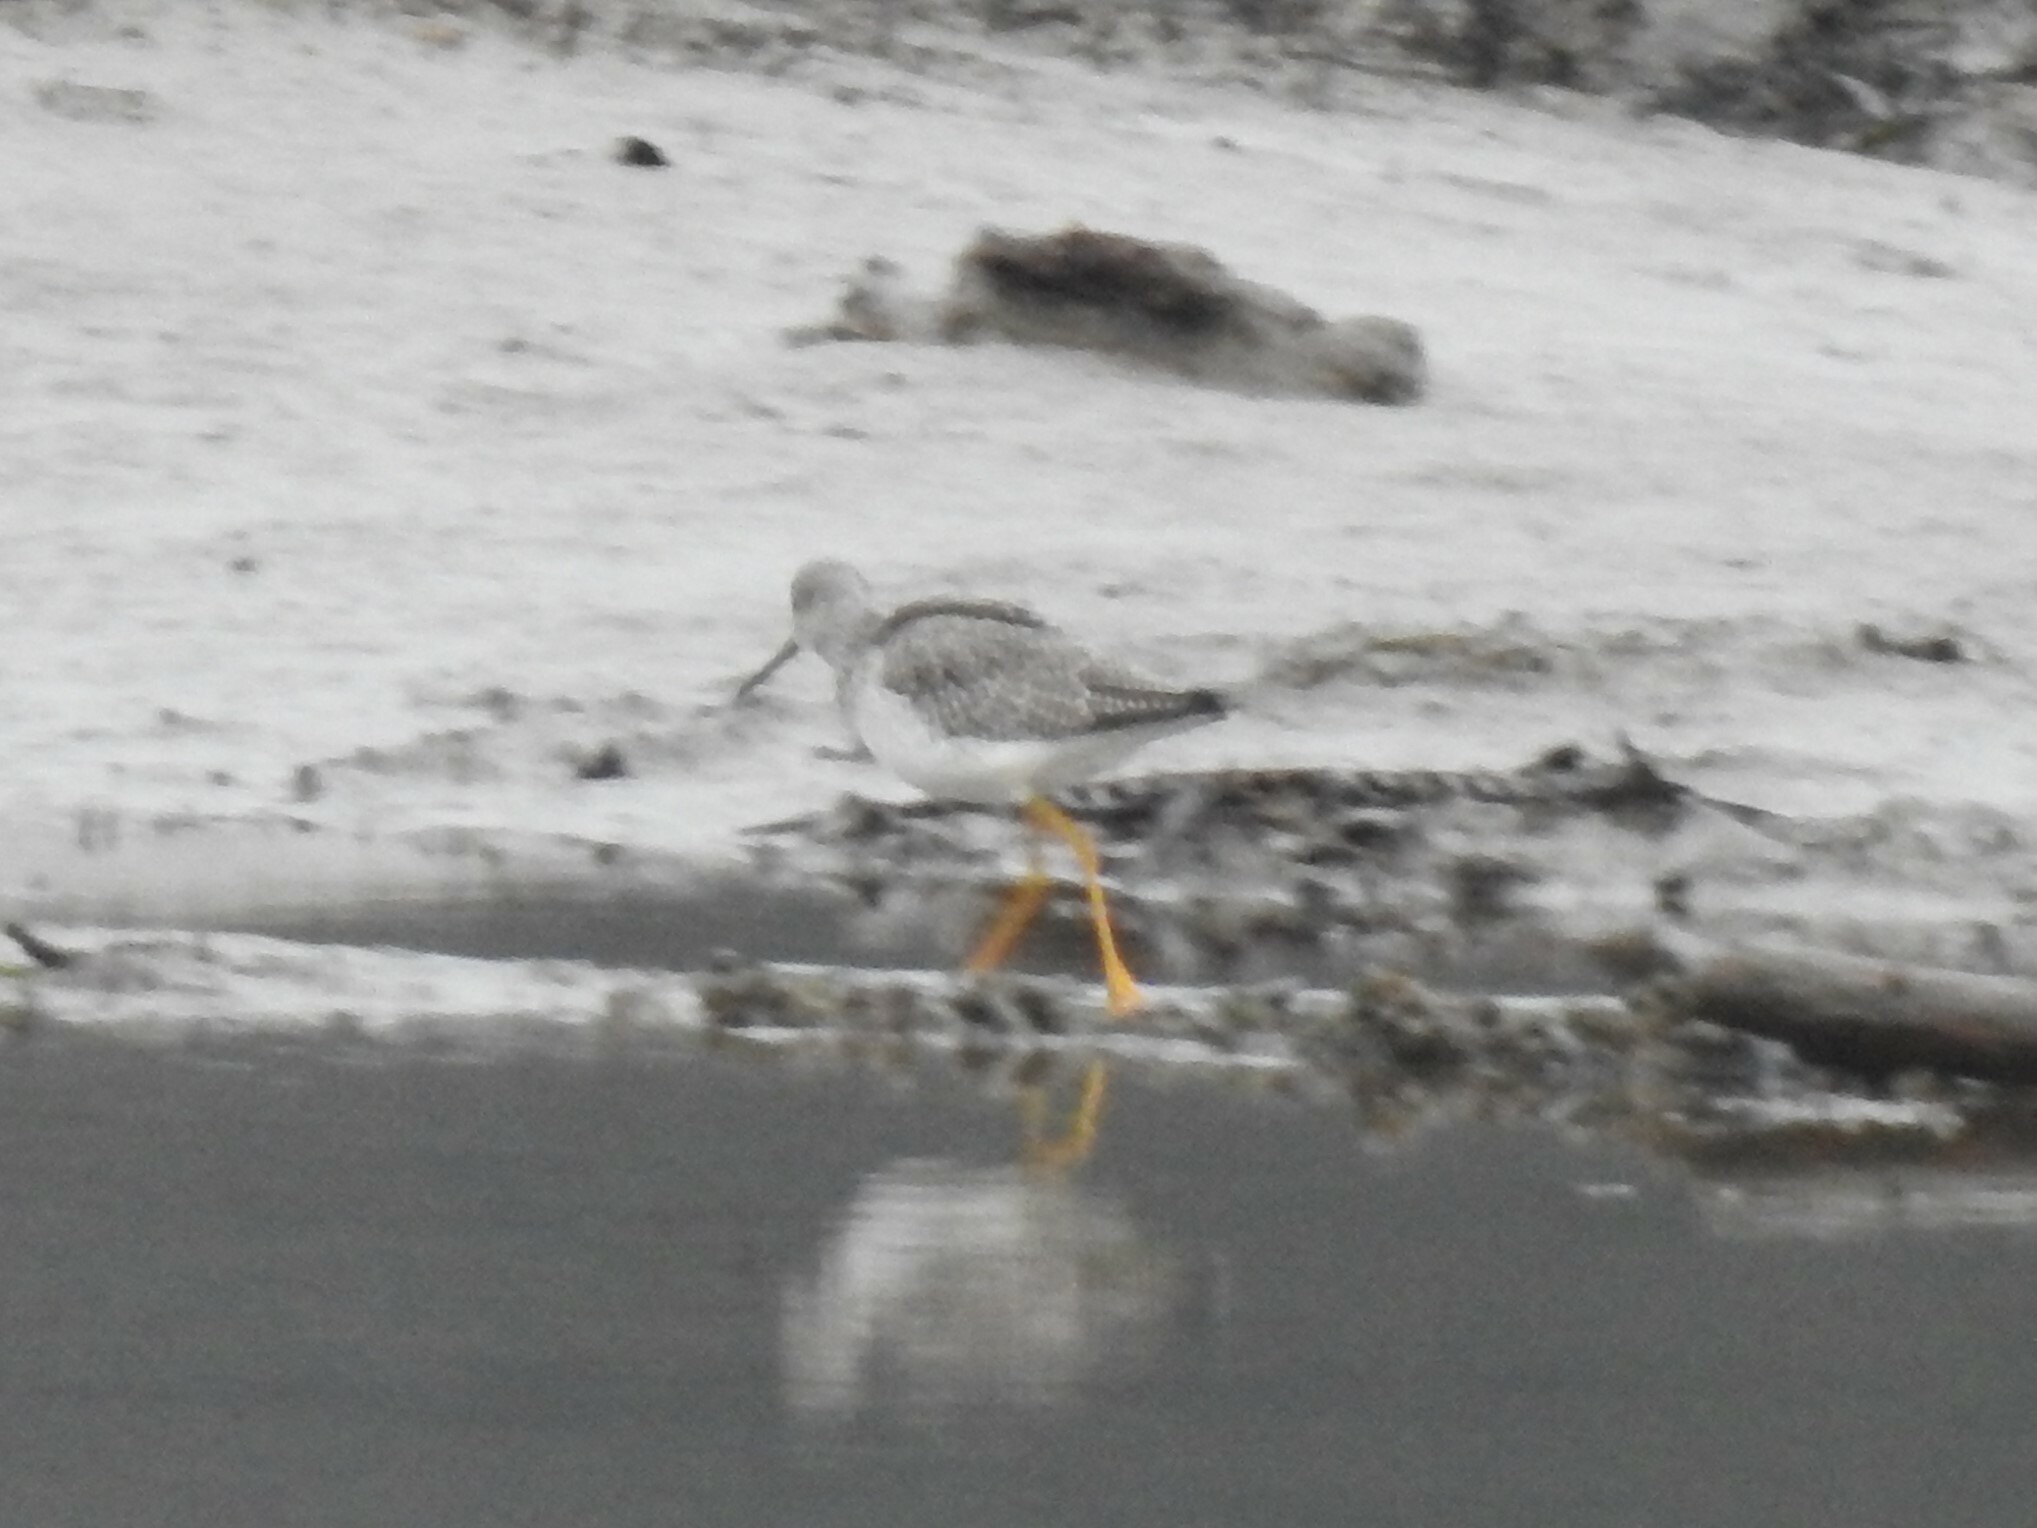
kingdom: Animalia
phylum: Chordata
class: Aves
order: Charadriiformes
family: Scolopacidae
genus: Tringa
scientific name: Tringa melanoleuca
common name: Greater yellowlegs
